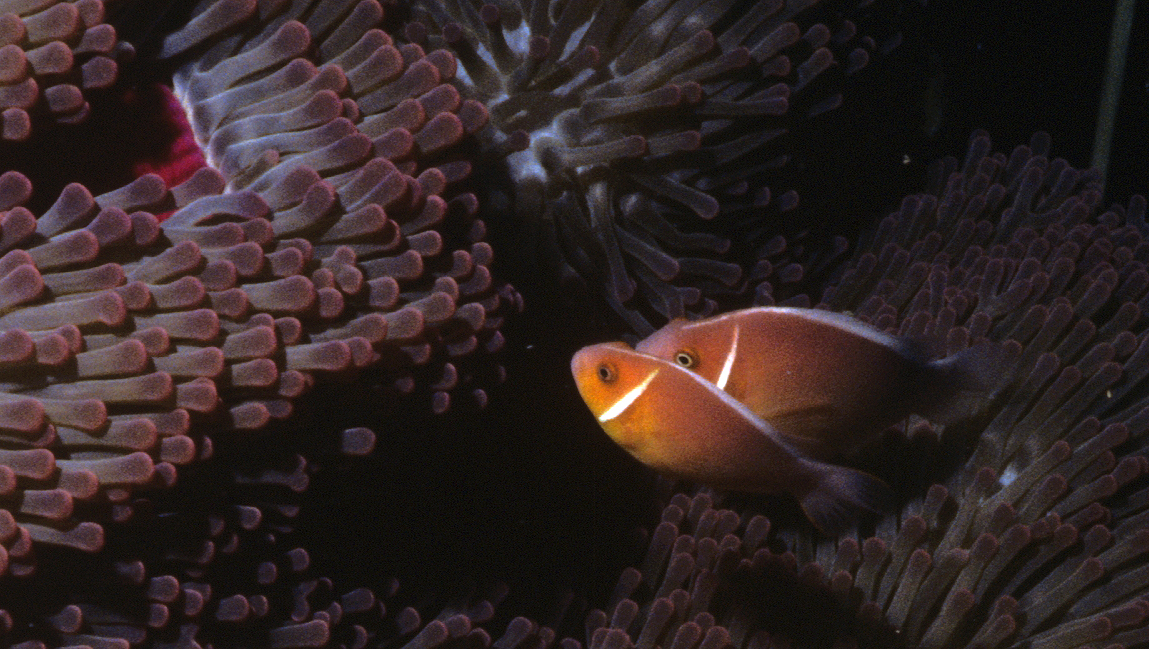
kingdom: Animalia
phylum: Chordata
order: Perciformes
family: Pomacentridae
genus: Amphiprion
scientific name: Amphiprion perideraion
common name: Pink anemonefish
